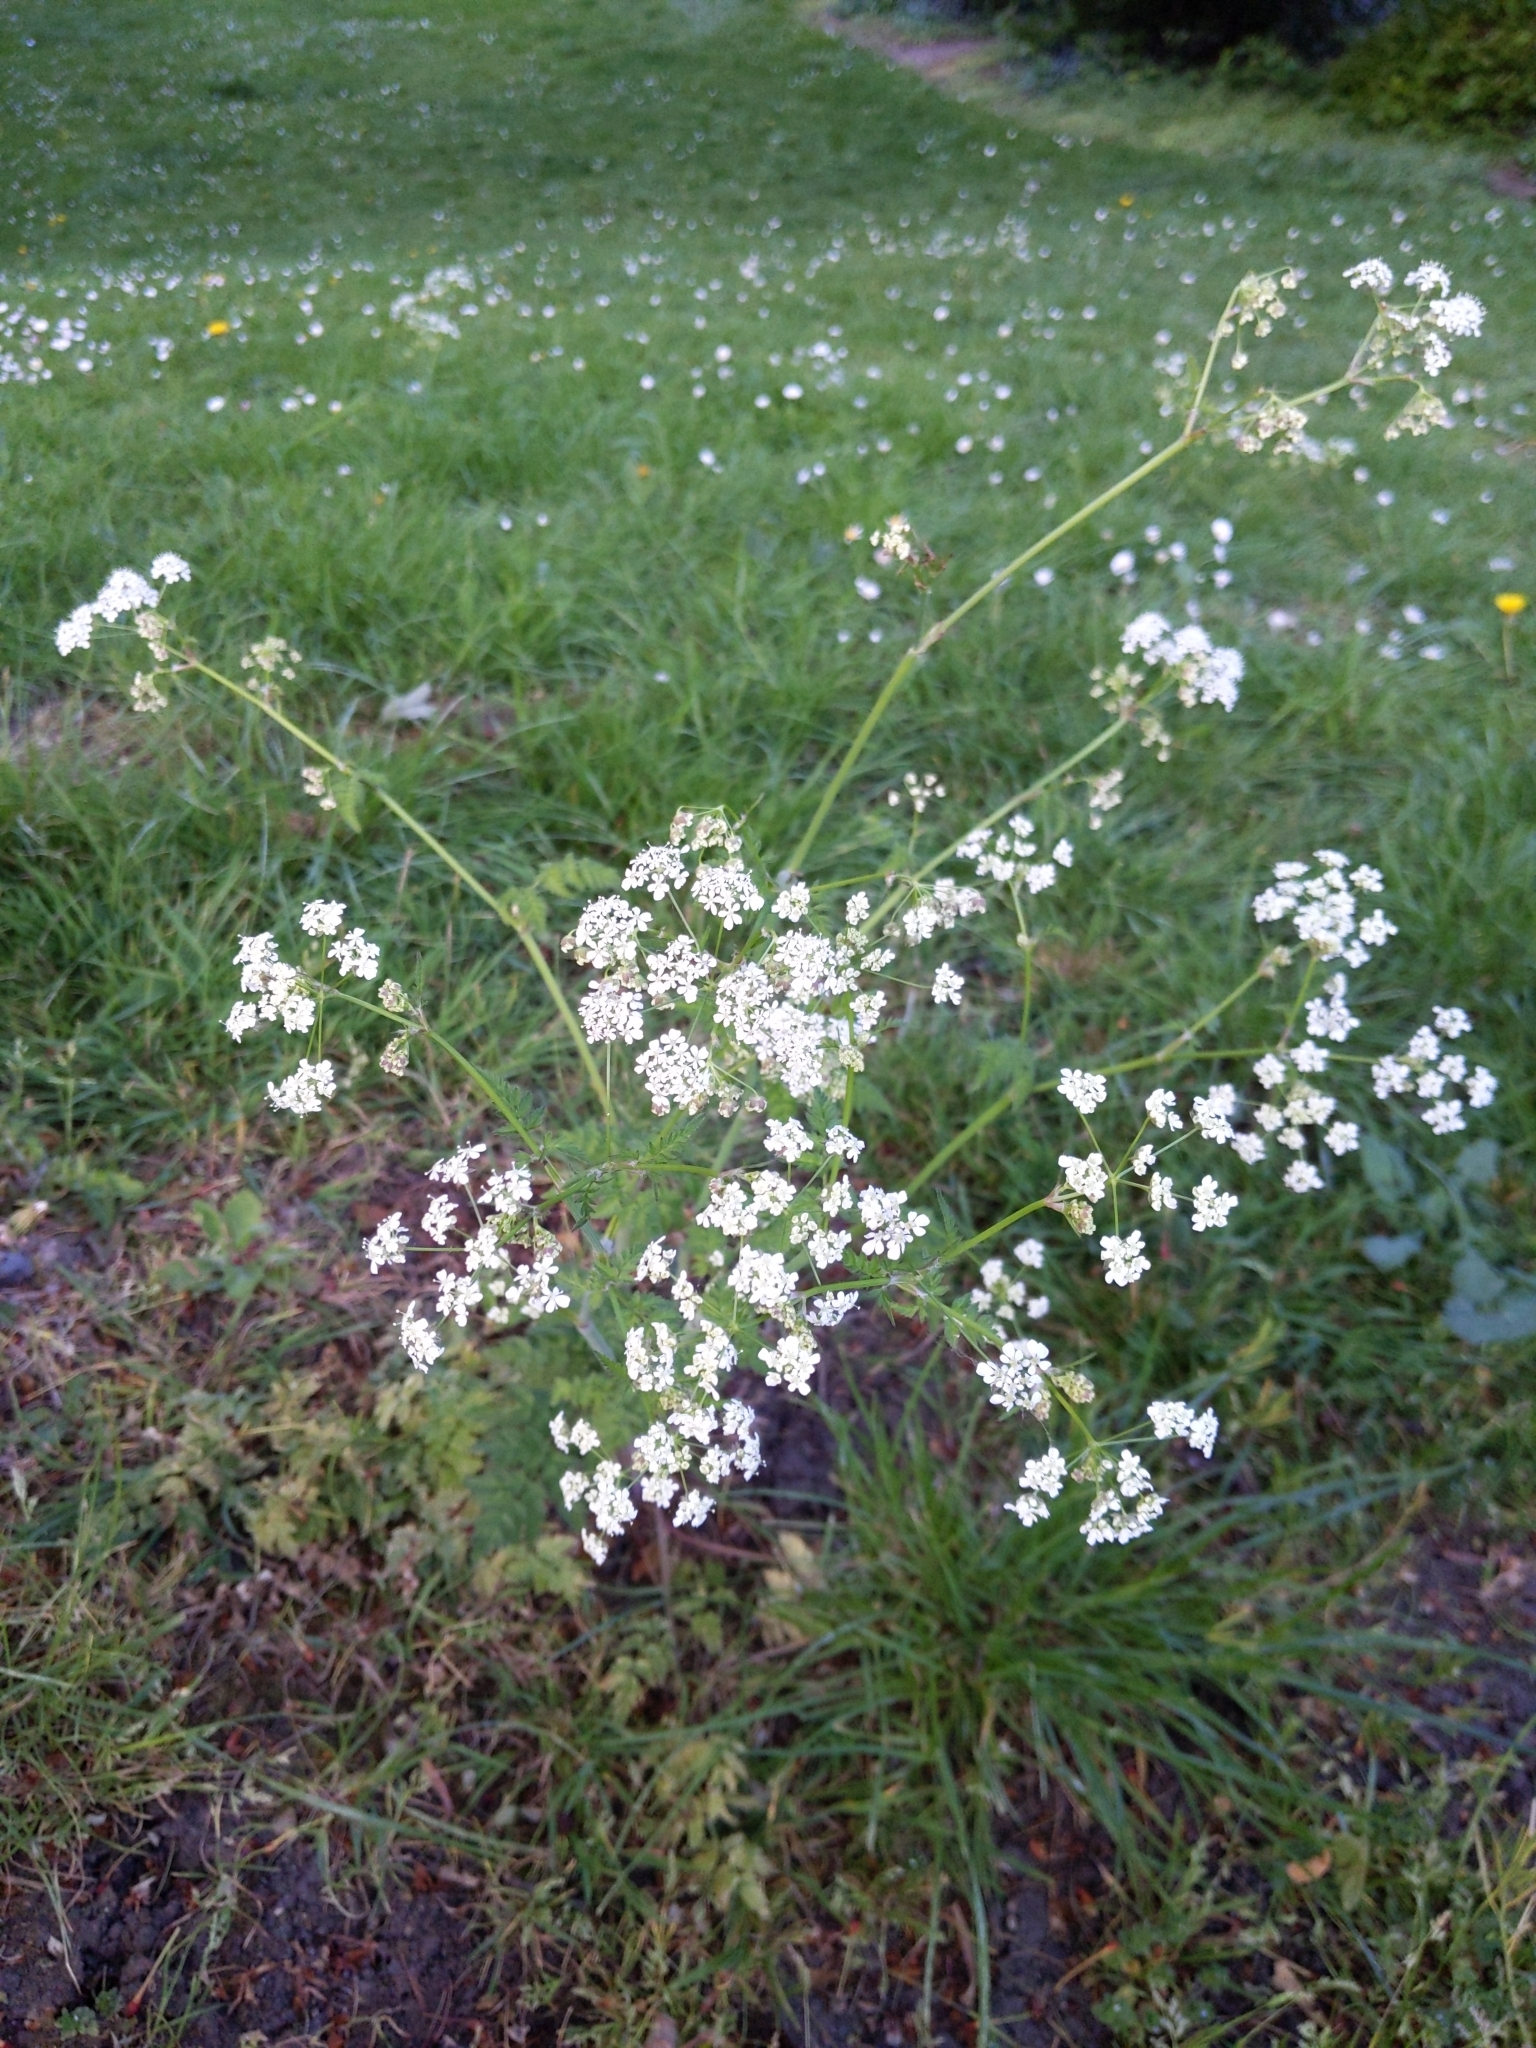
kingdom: Plantae
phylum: Tracheophyta
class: Magnoliopsida
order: Apiales
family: Apiaceae
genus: Anthriscus
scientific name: Anthriscus sylvestris
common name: Cow parsley
